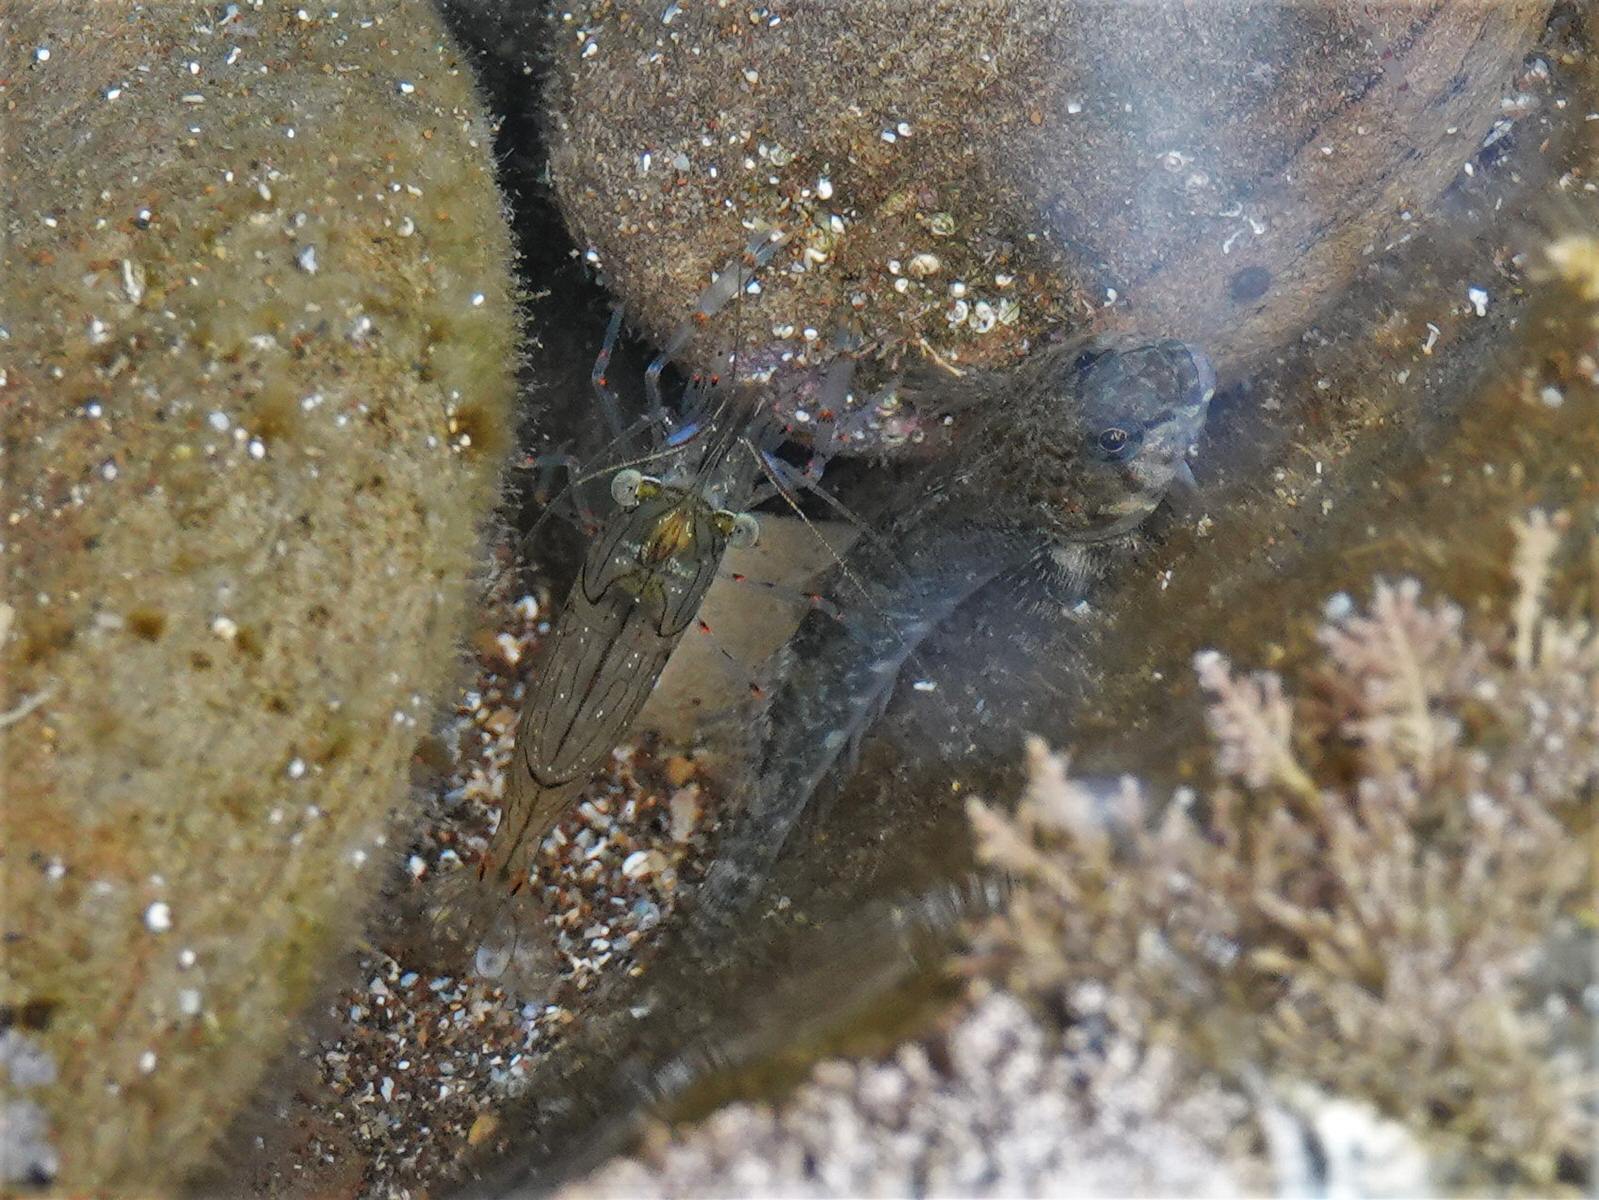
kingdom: Animalia
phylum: Chordata
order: Perciformes
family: Tripterygiidae
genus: Bellapiscis
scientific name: Bellapiscis medius
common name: Twister
